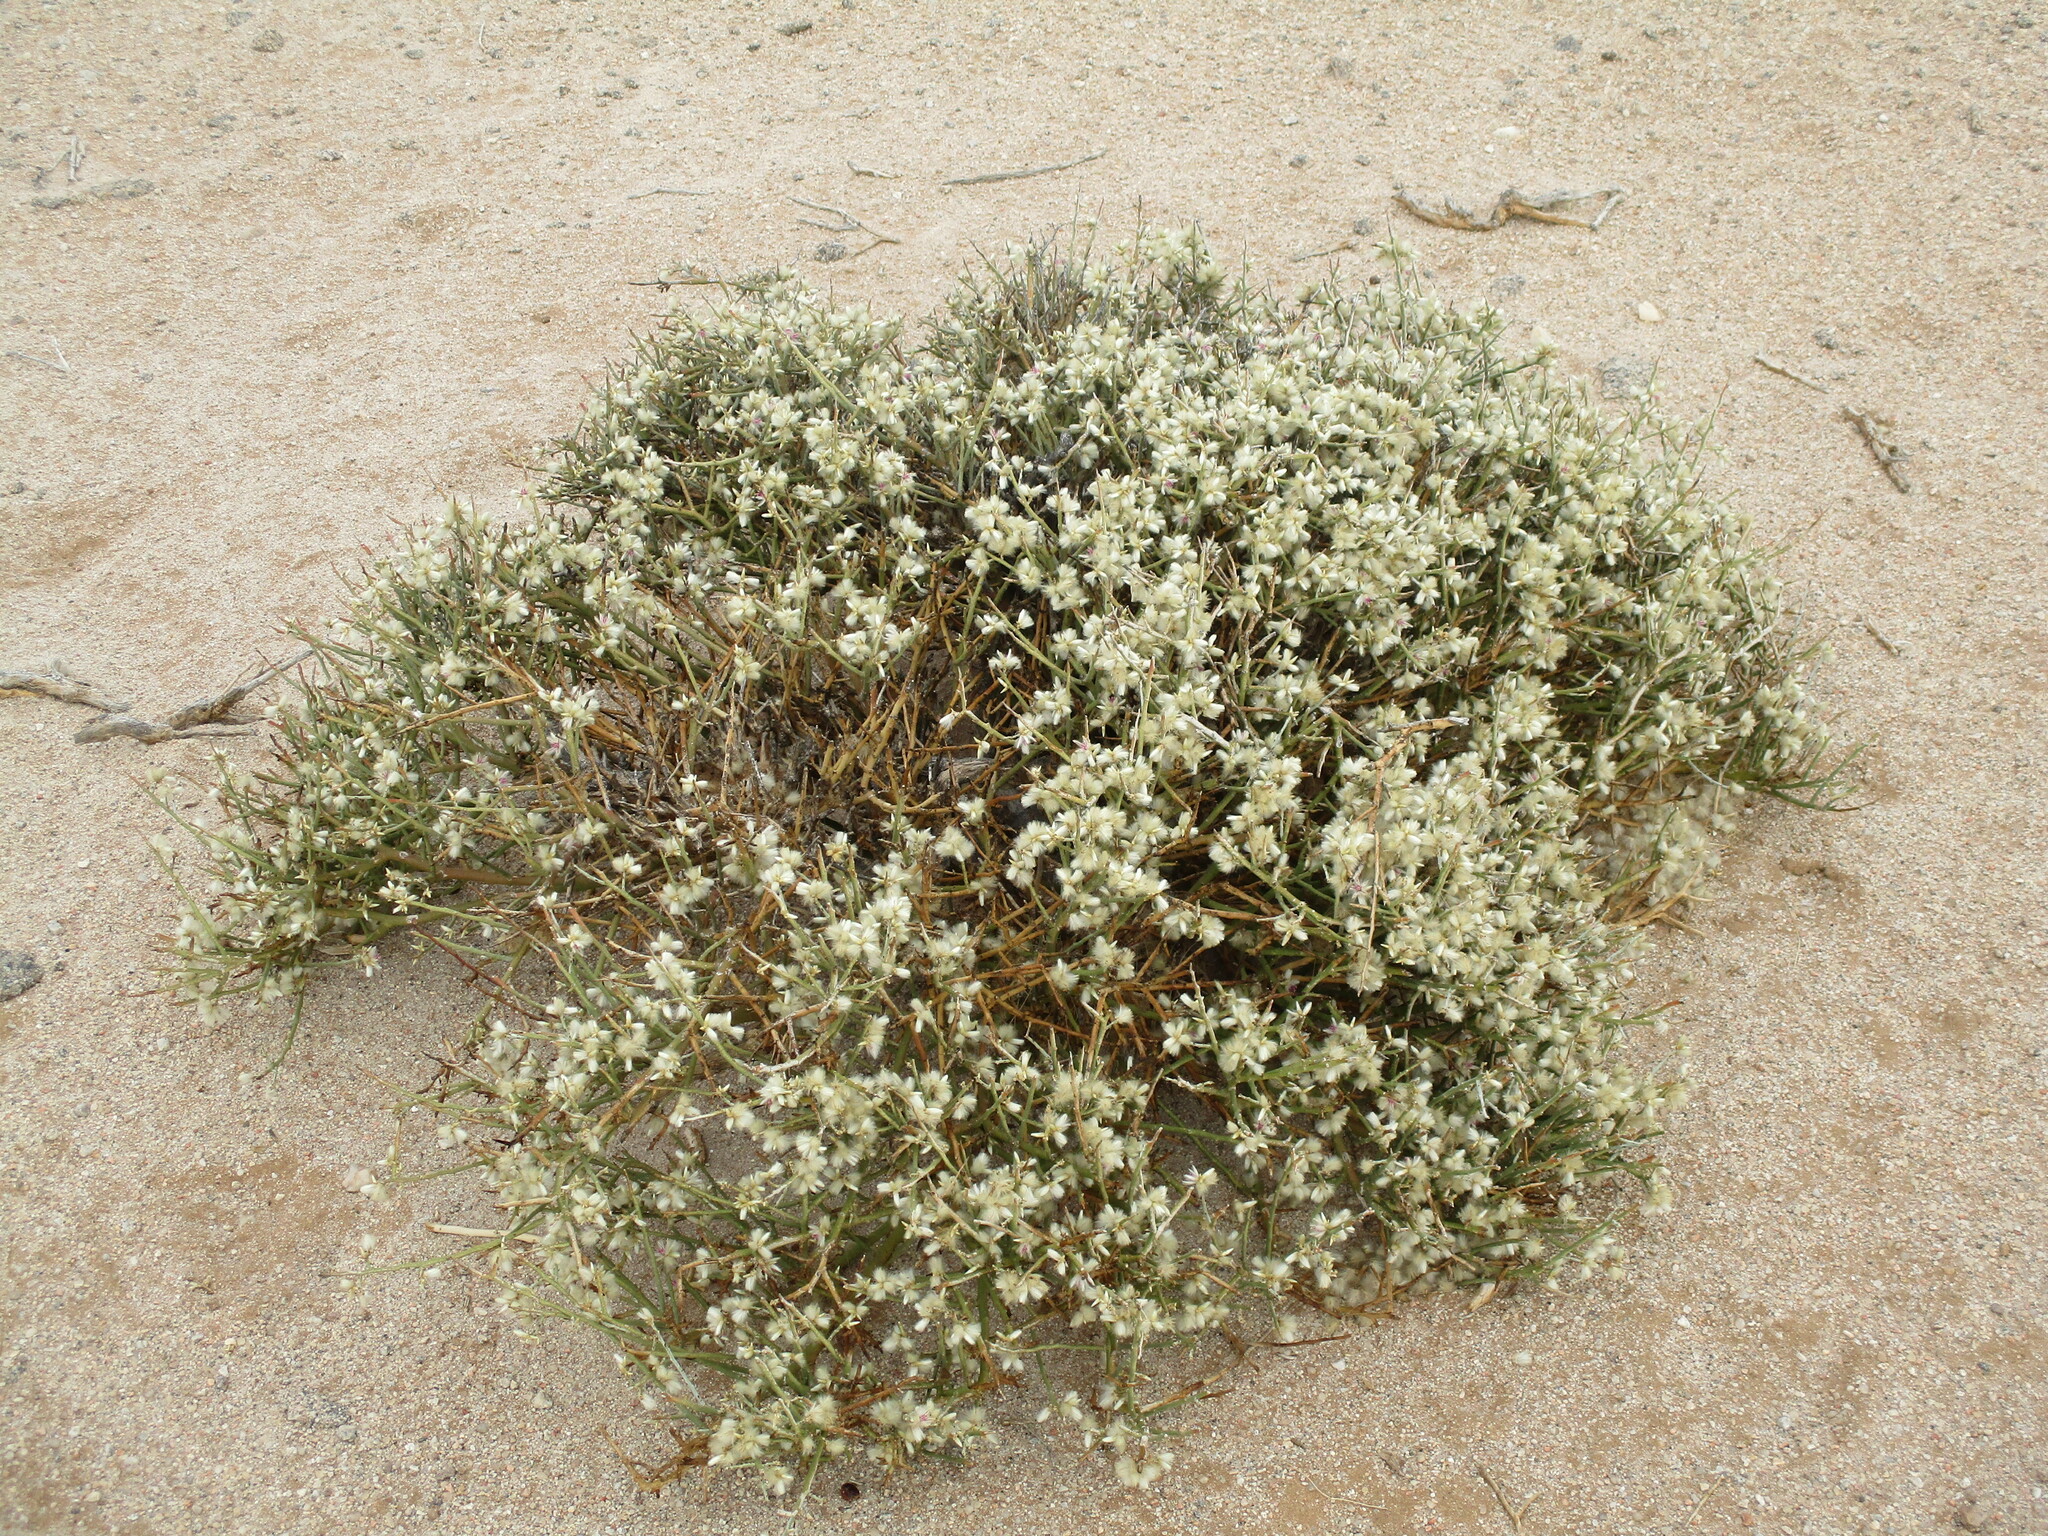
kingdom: Plantae
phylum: Tracheophyta
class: Magnoliopsida
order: Caryophyllales
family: Amaranthaceae
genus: Calicorema
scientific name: Calicorema capitata
